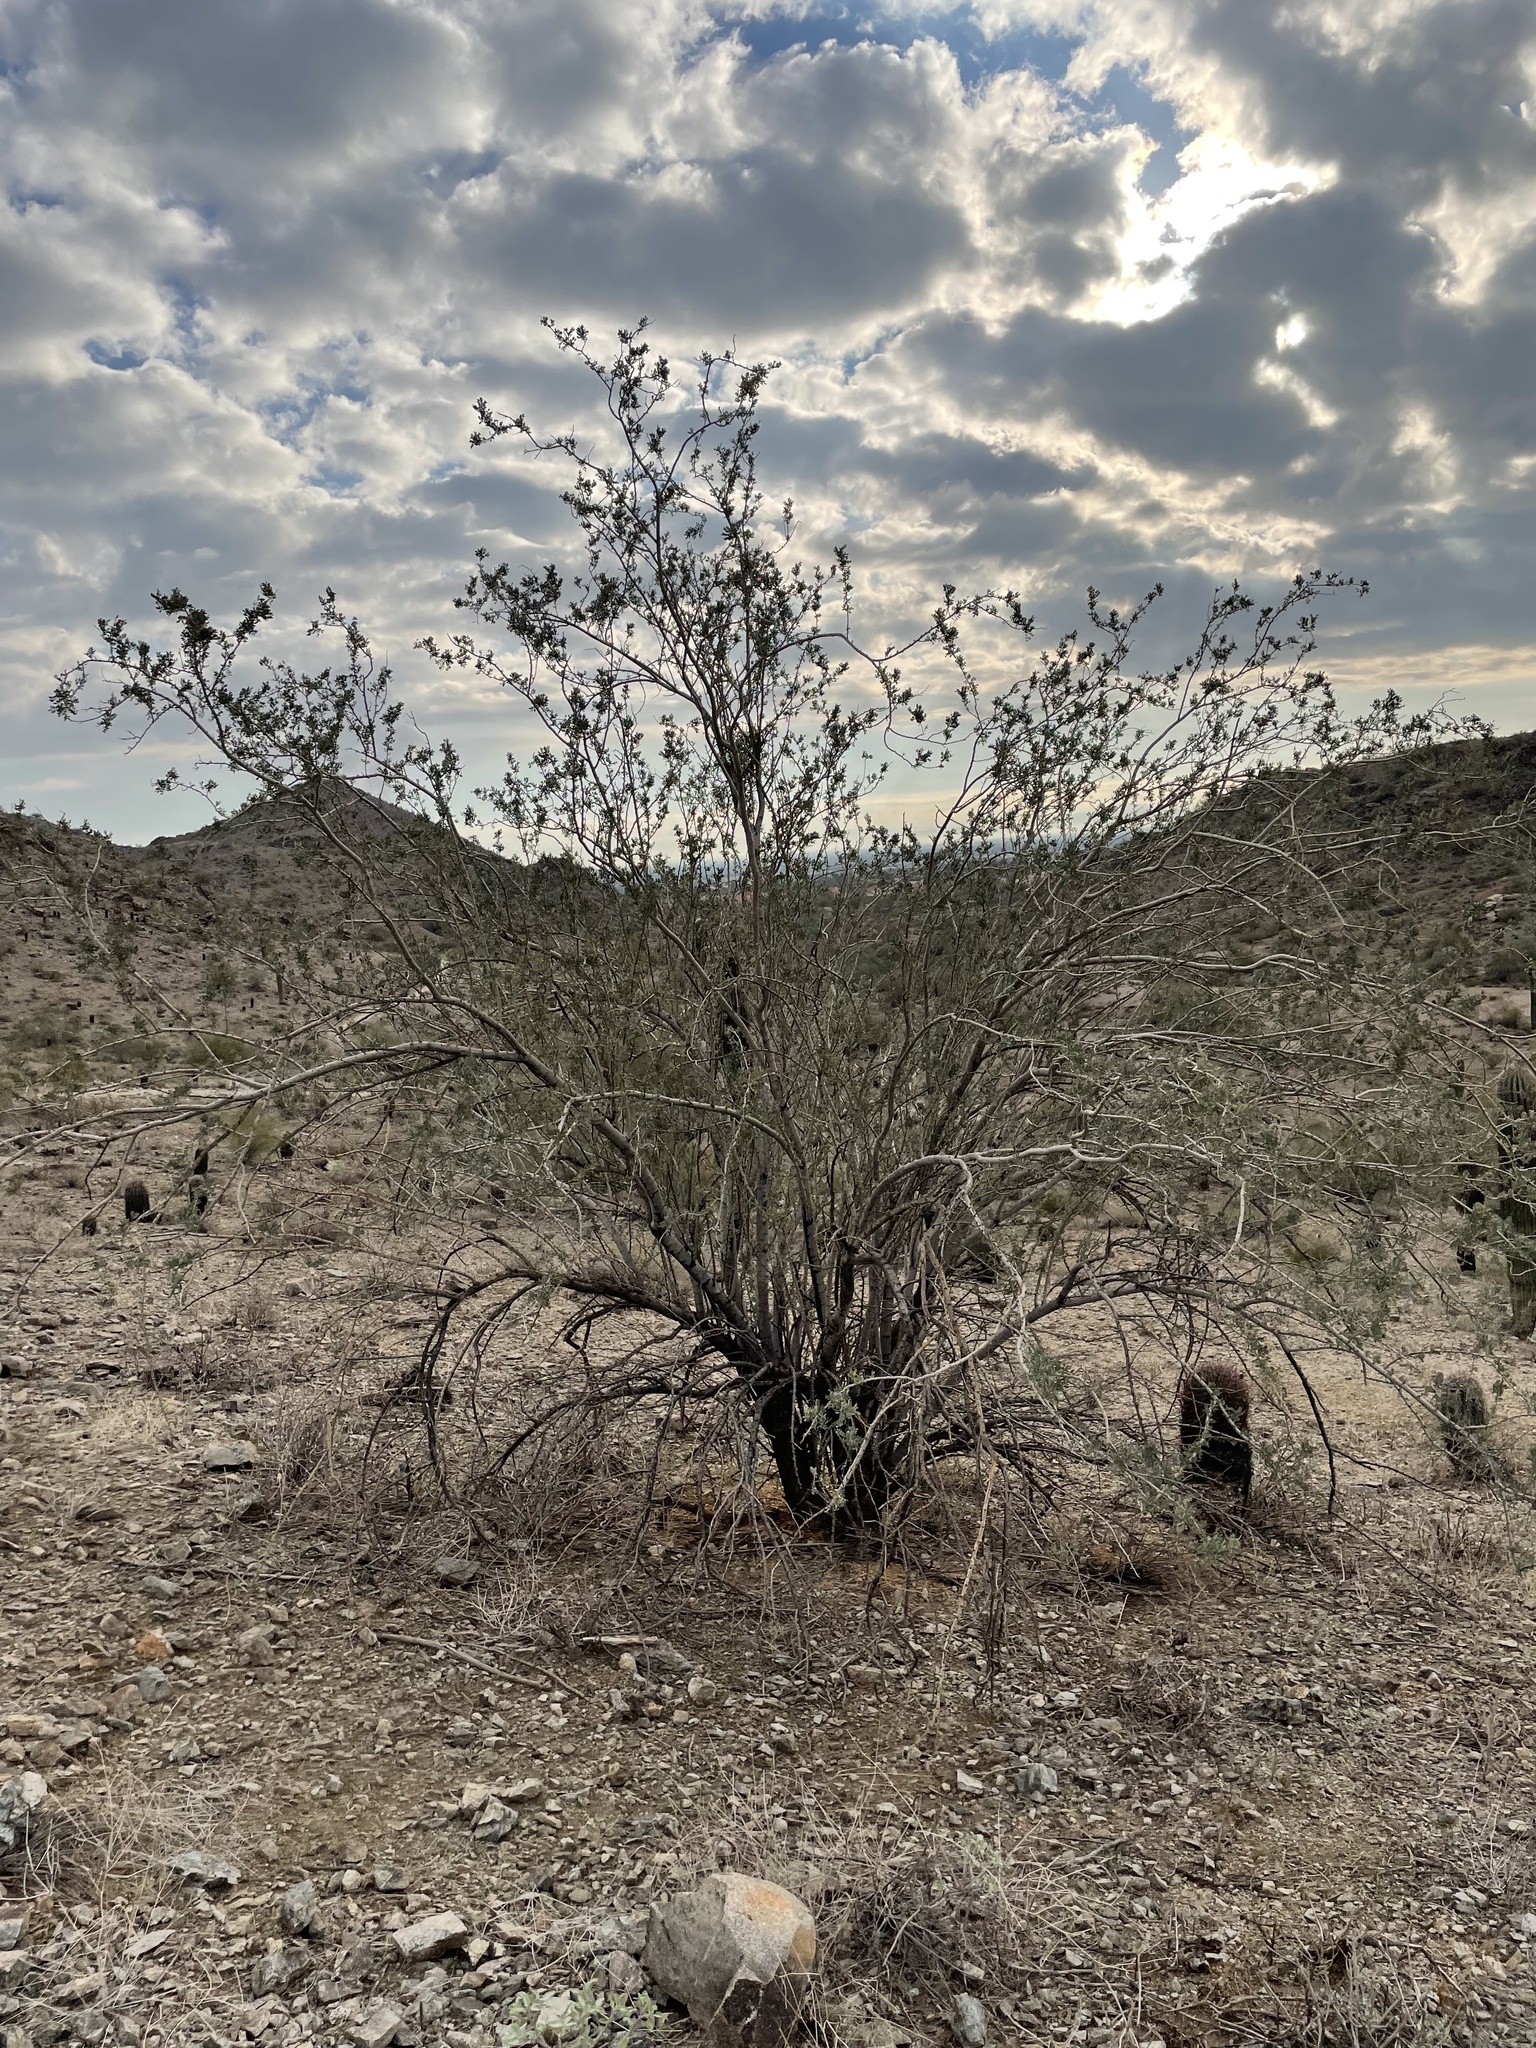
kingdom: Plantae
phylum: Tracheophyta
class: Magnoliopsida
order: Fabales
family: Fabaceae
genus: Olneya
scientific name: Olneya tesota
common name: Desert ironwood
